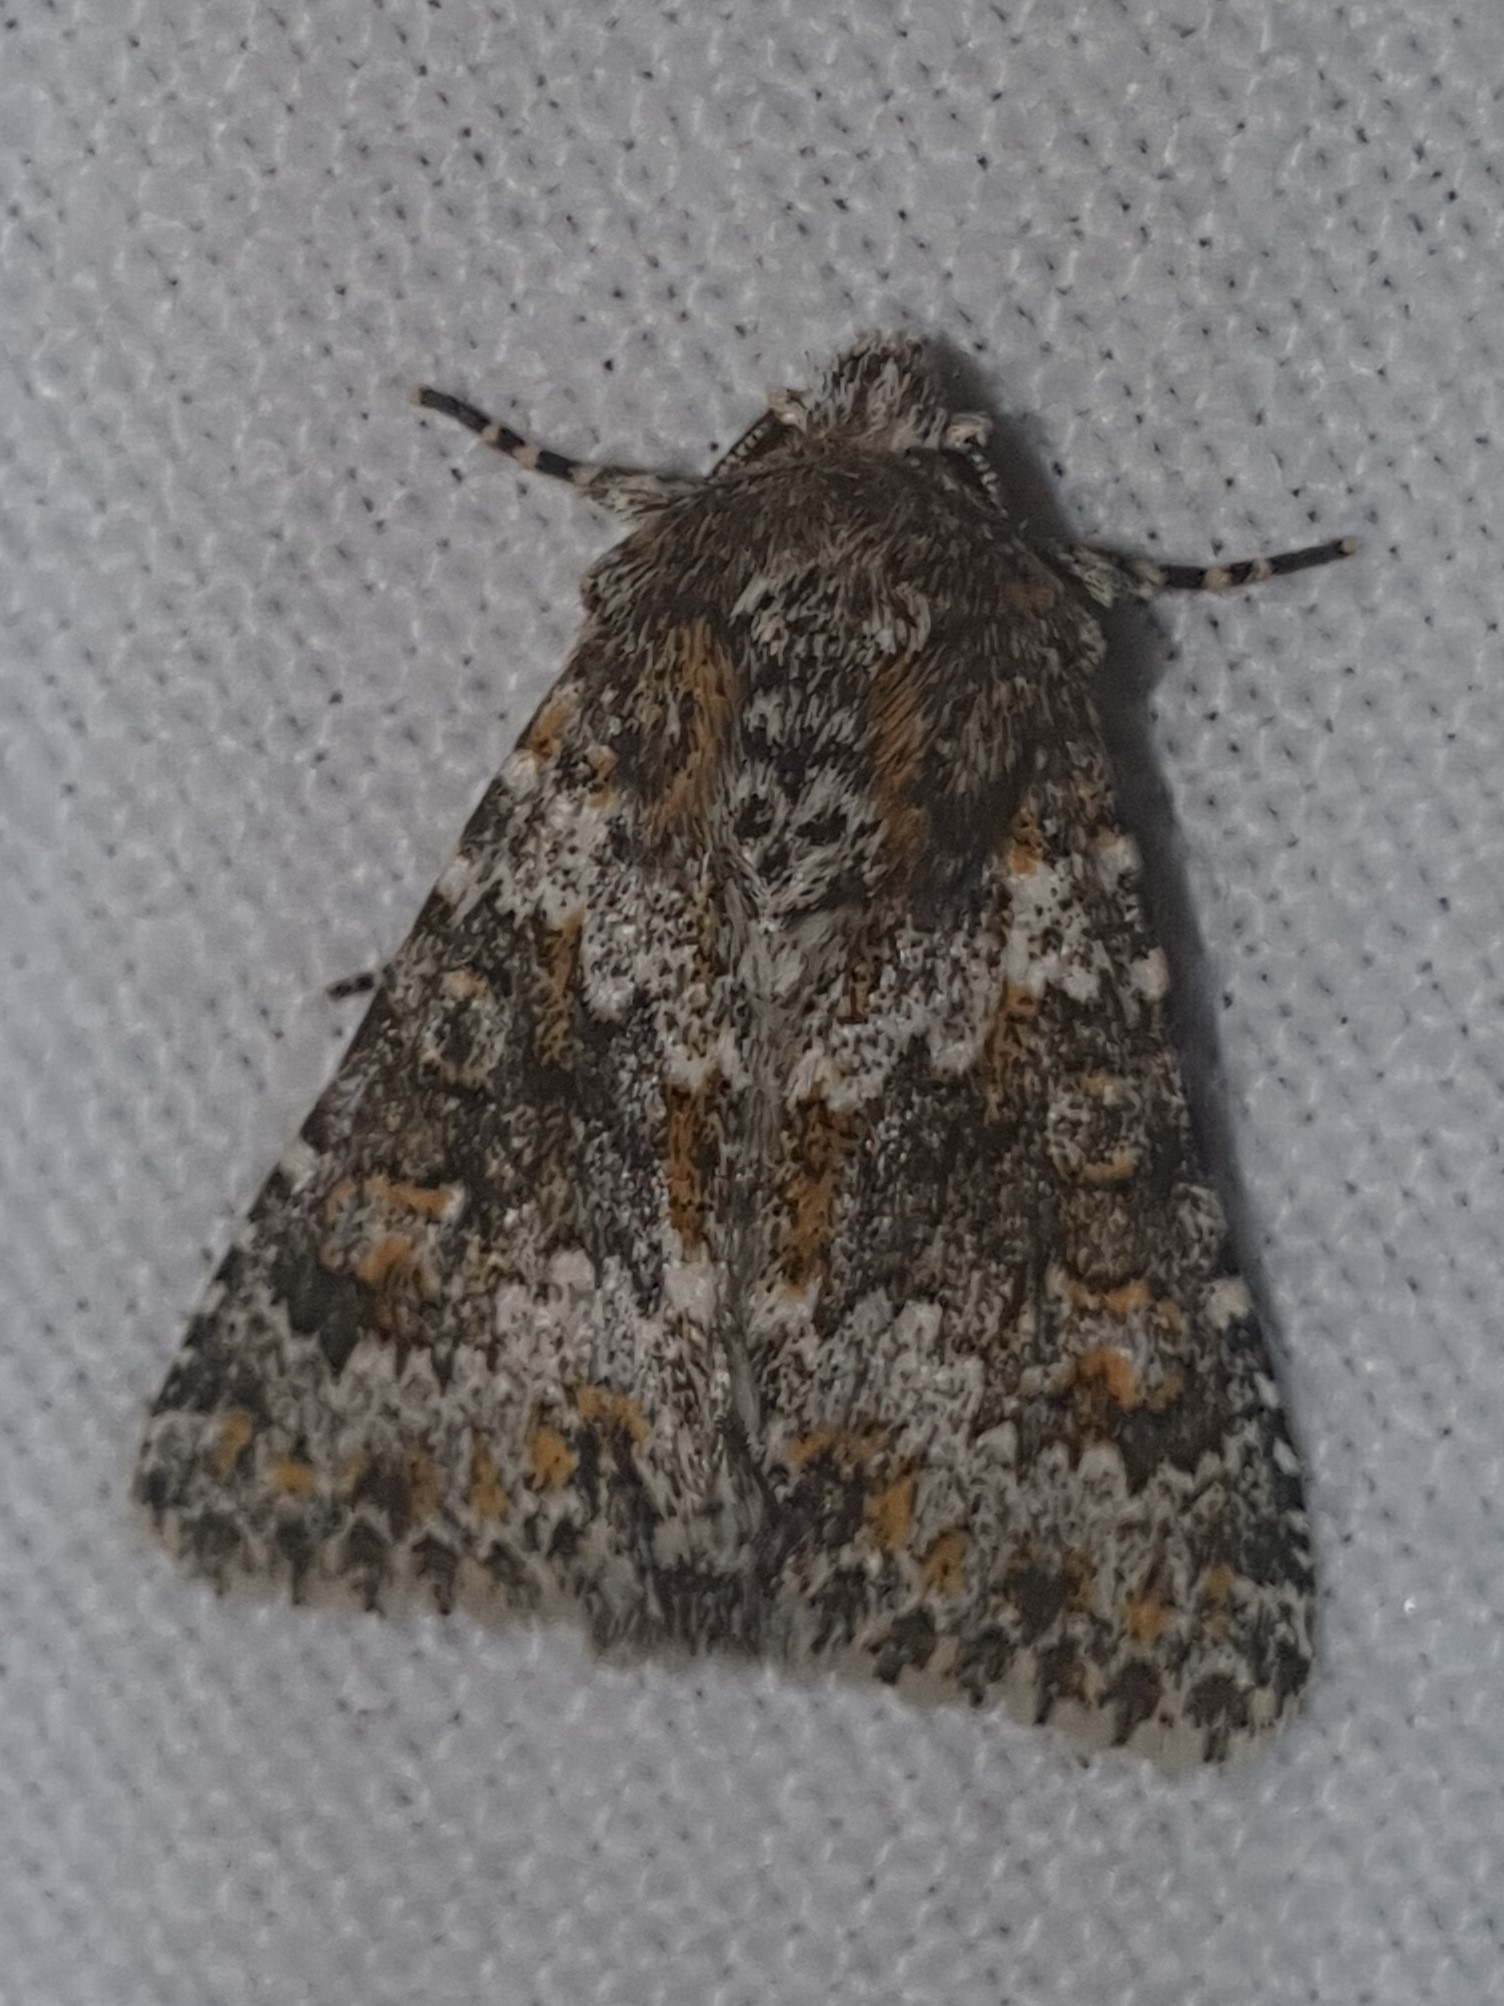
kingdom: Animalia
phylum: Arthropoda
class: Insecta
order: Lepidoptera
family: Noctuidae
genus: Hecatera
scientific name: Hecatera dysodea
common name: Small ranunculus
